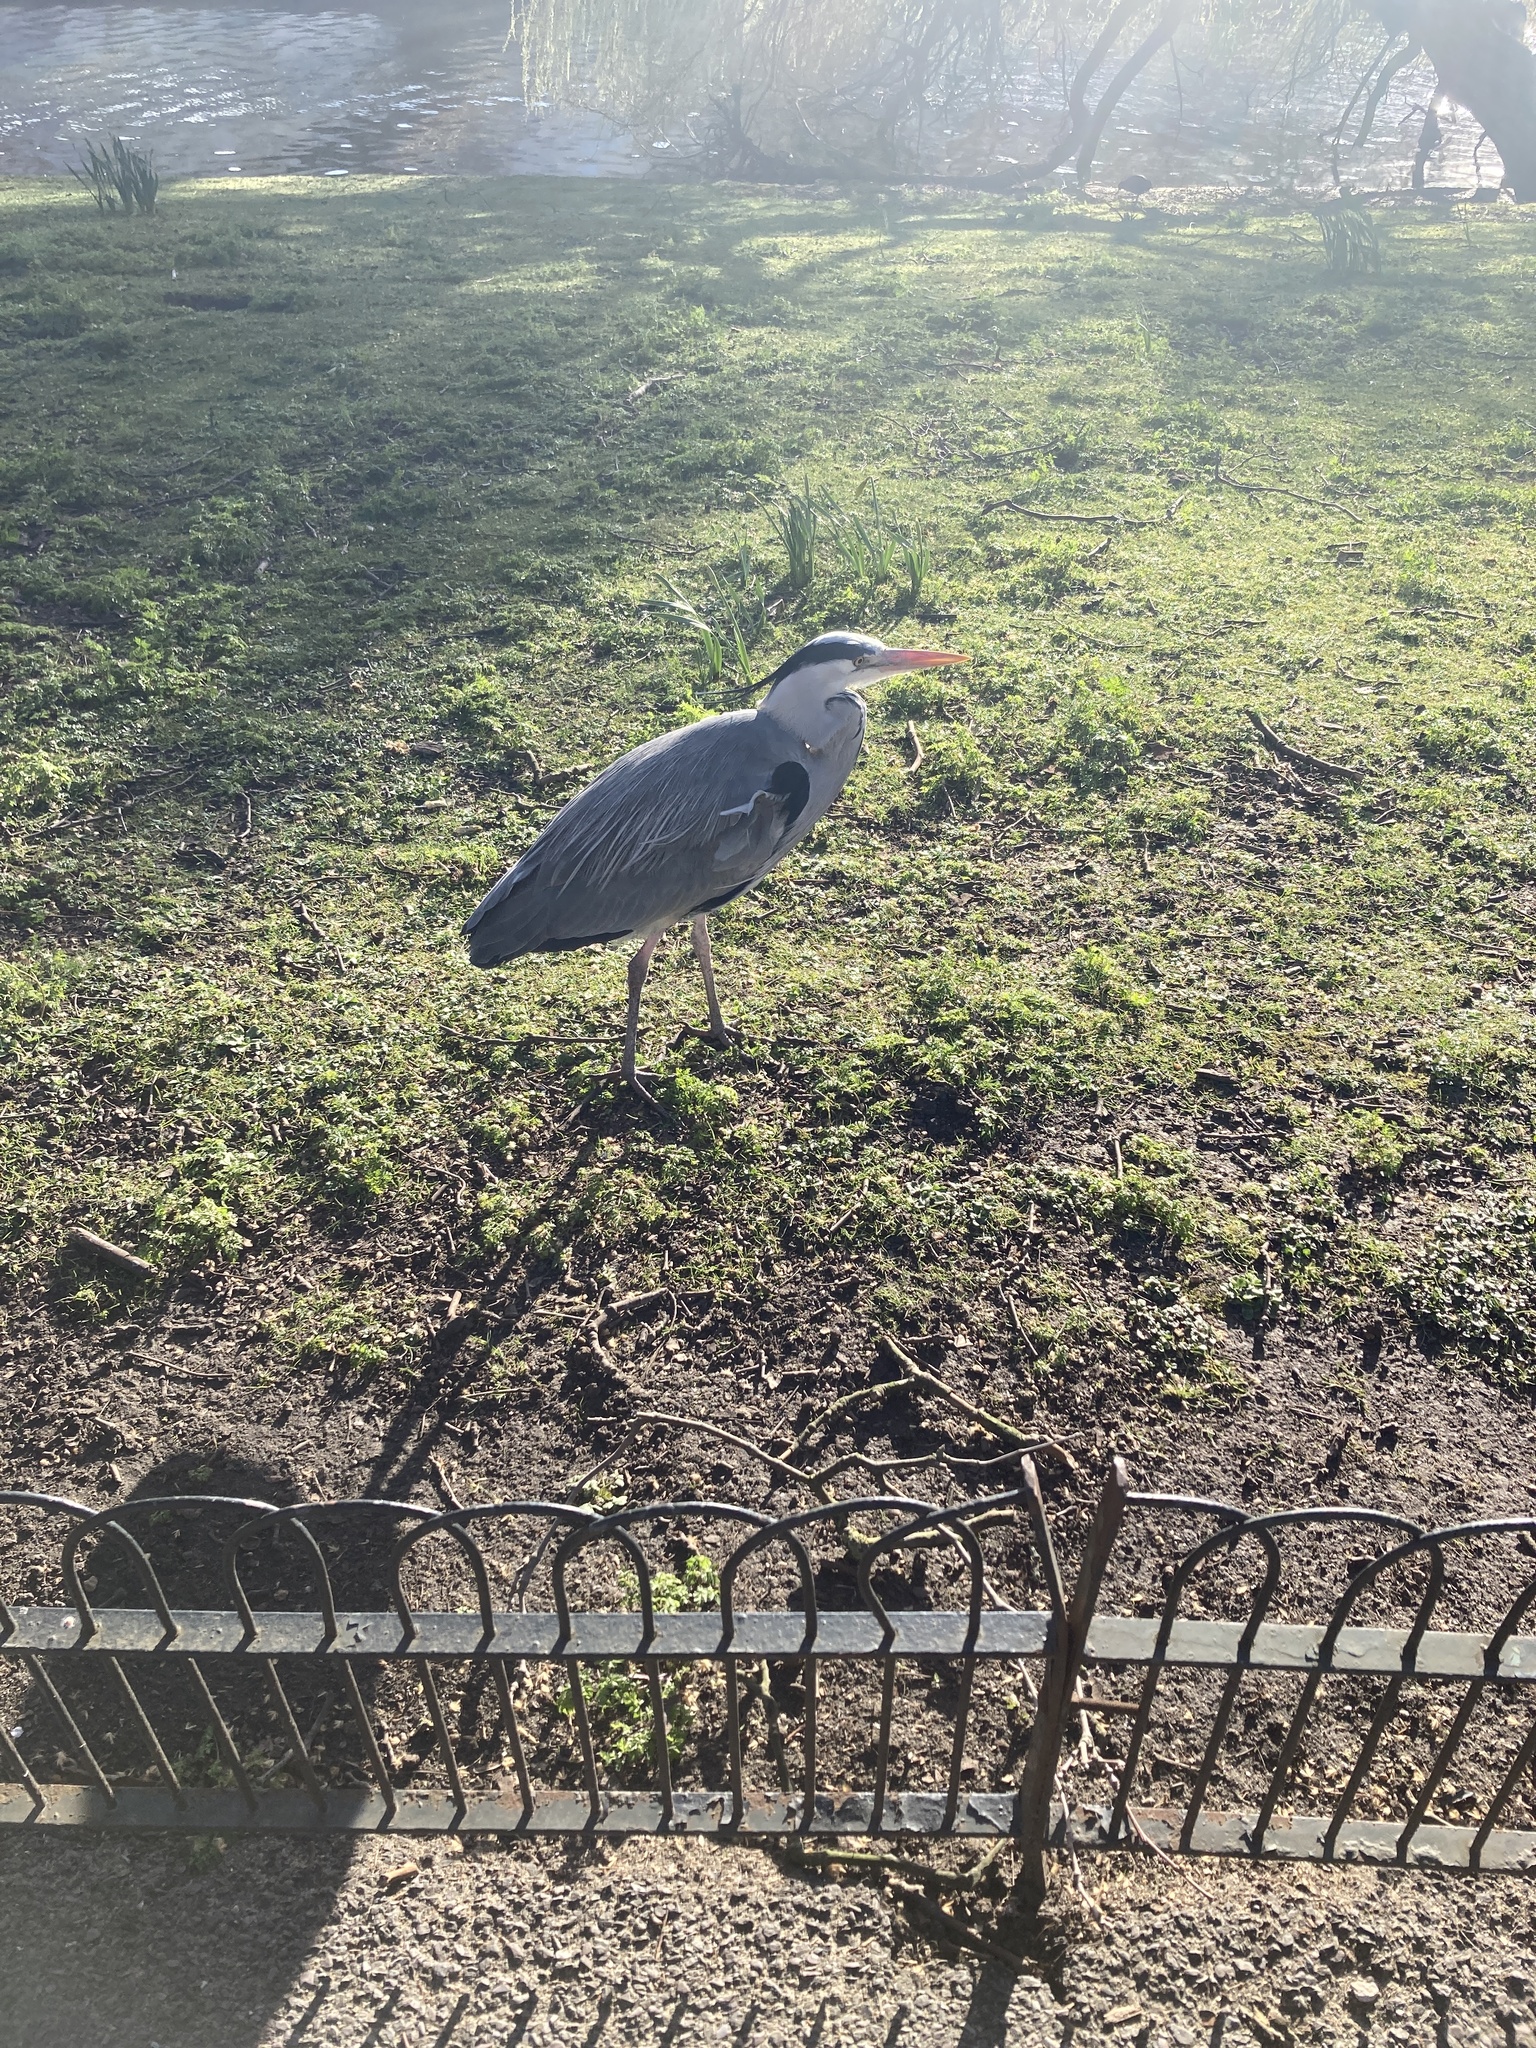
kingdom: Animalia
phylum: Chordata
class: Aves
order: Pelecaniformes
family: Ardeidae
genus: Ardea
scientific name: Ardea cinerea
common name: Grey heron
